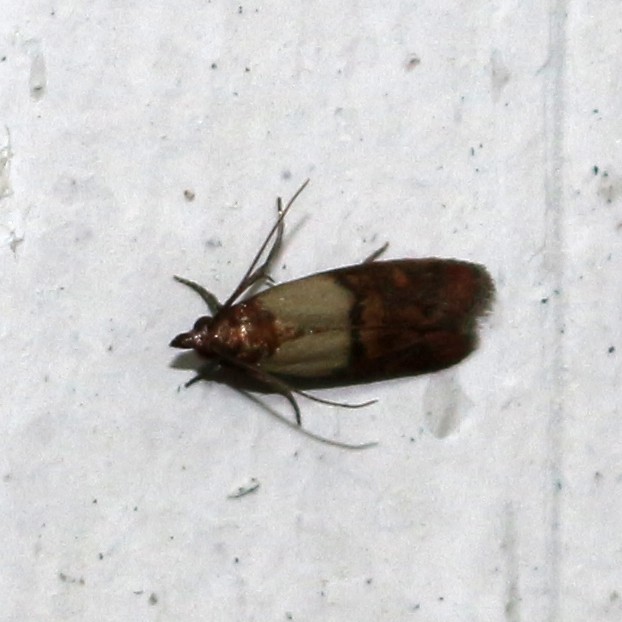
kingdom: Animalia
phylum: Arthropoda
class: Insecta
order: Lepidoptera
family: Pyralidae
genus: Plodia
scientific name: Plodia interpunctella
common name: Indian meal moth
